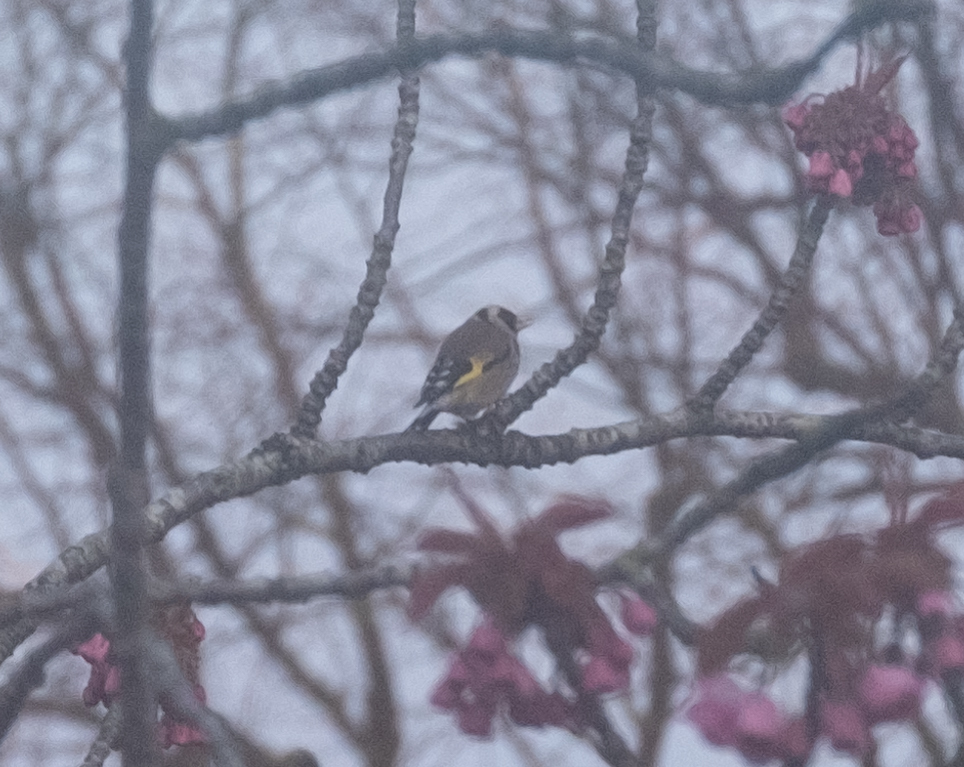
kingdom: Animalia
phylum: Chordata
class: Aves
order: Passeriformes
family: Fringillidae
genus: Carduelis
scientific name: Carduelis carduelis
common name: European goldfinch
